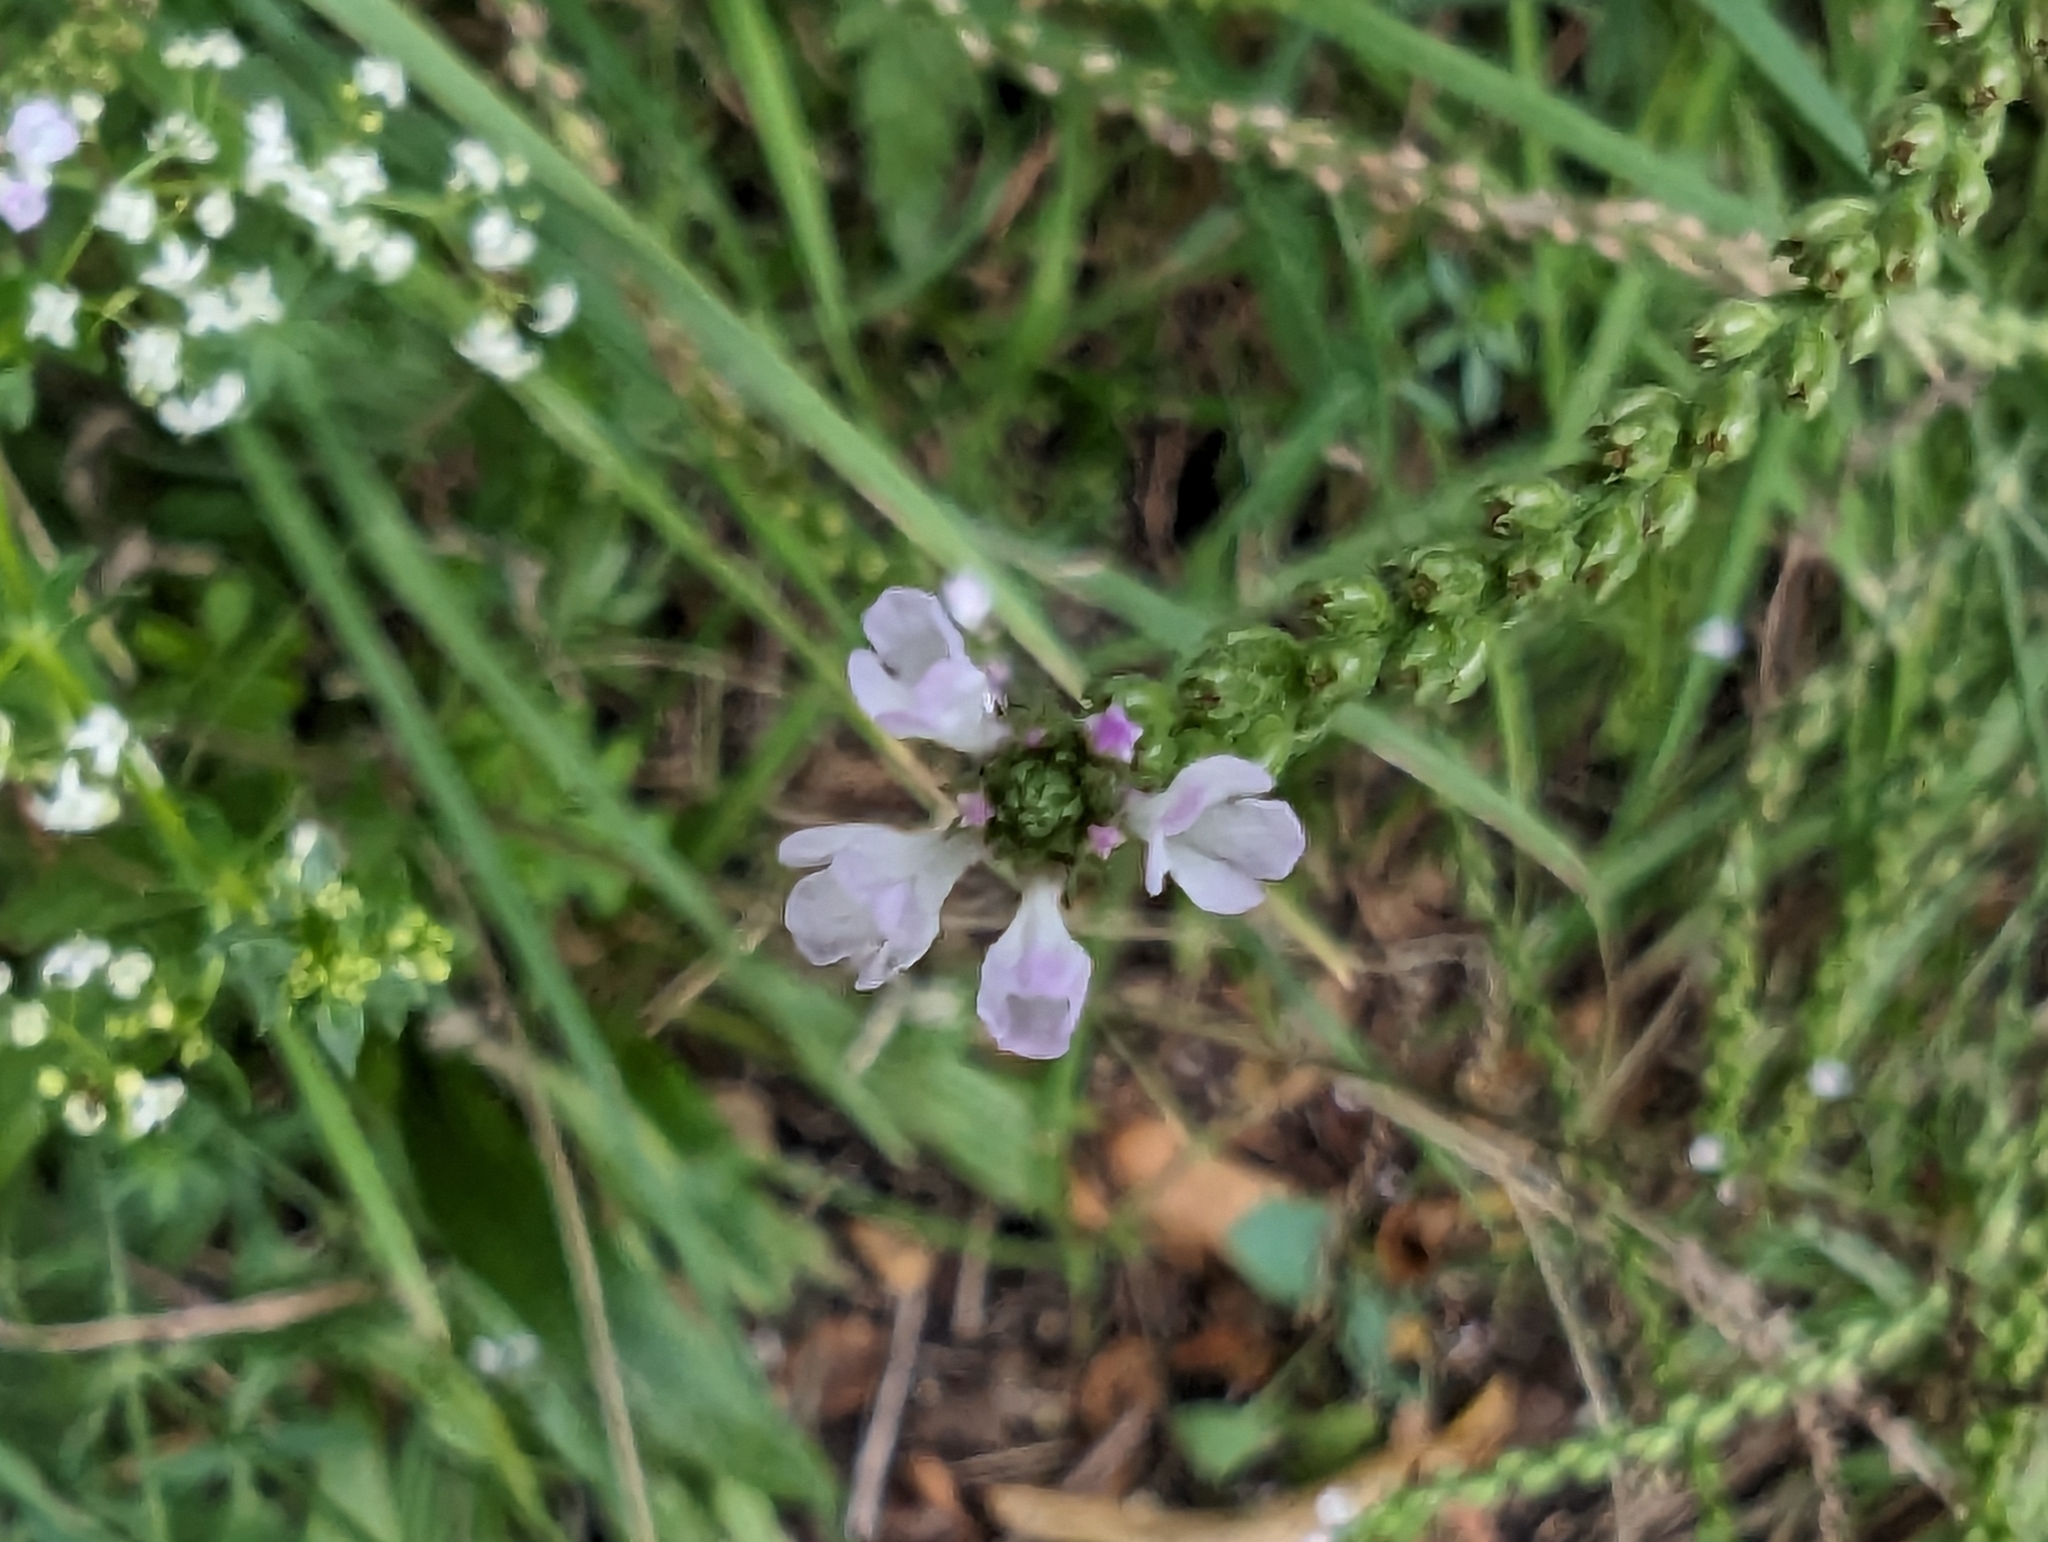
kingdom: Plantae
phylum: Tracheophyta
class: Magnoliopsida
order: Lamiales
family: Verbenaceae
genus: Verbena
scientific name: Verbena officinalis
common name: Vervain
